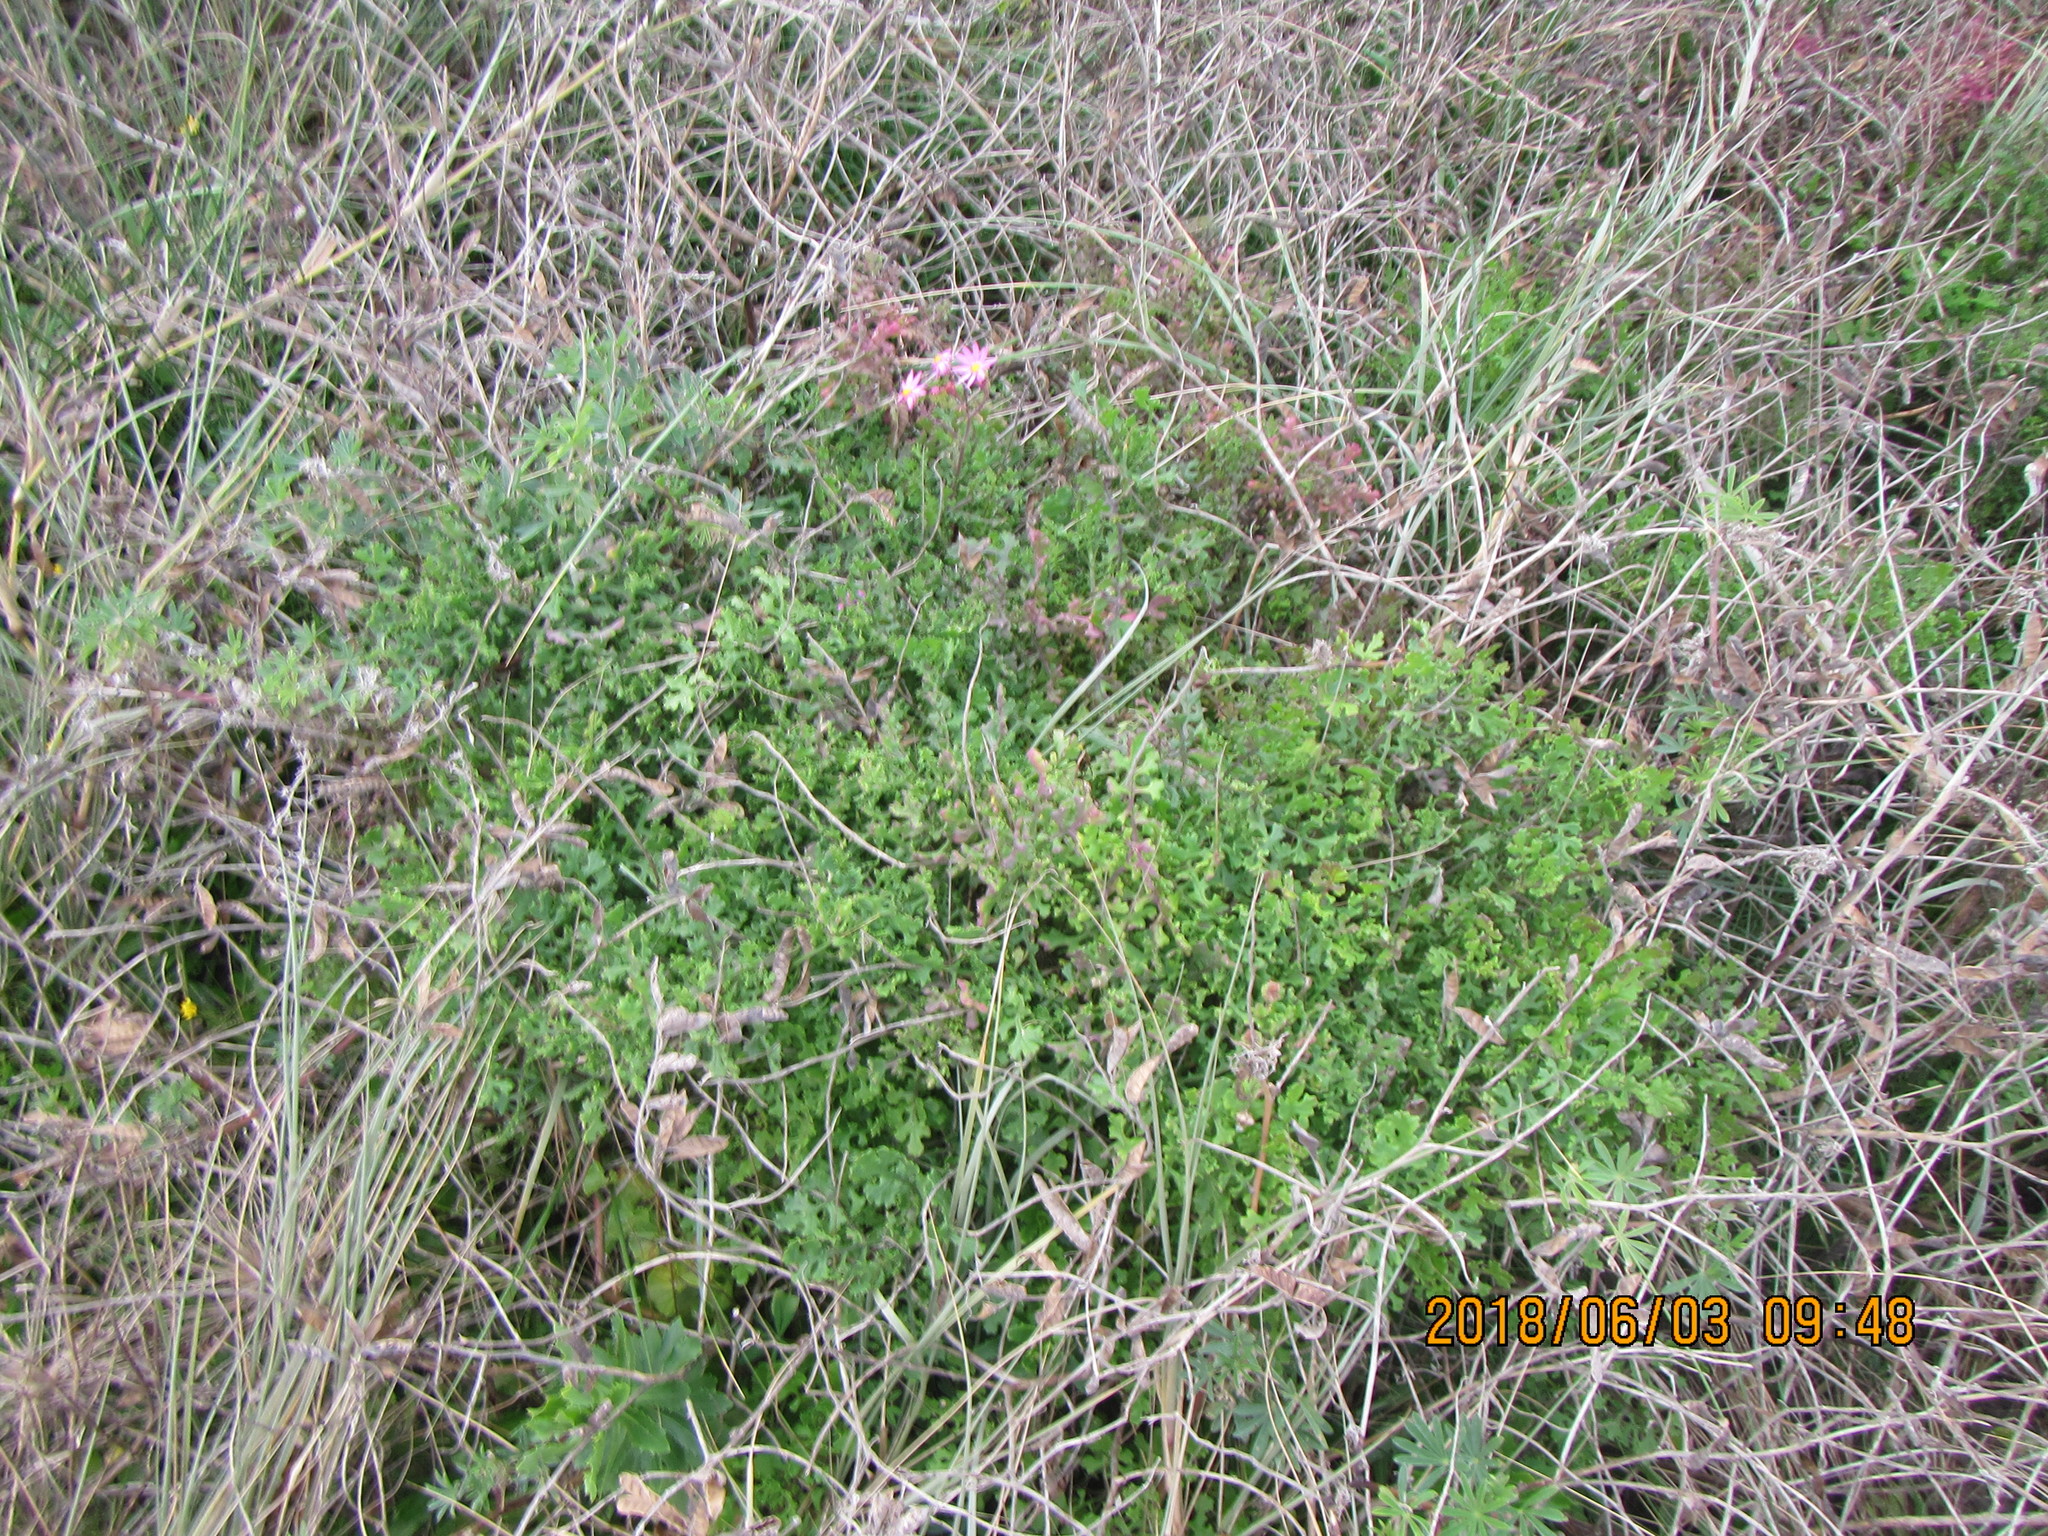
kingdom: Plantae
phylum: Tracheophyta
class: Magnoliopsida
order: Asterales
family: Asteraceae
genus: Senecio
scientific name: Senecio elegans
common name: Purple groundsel
